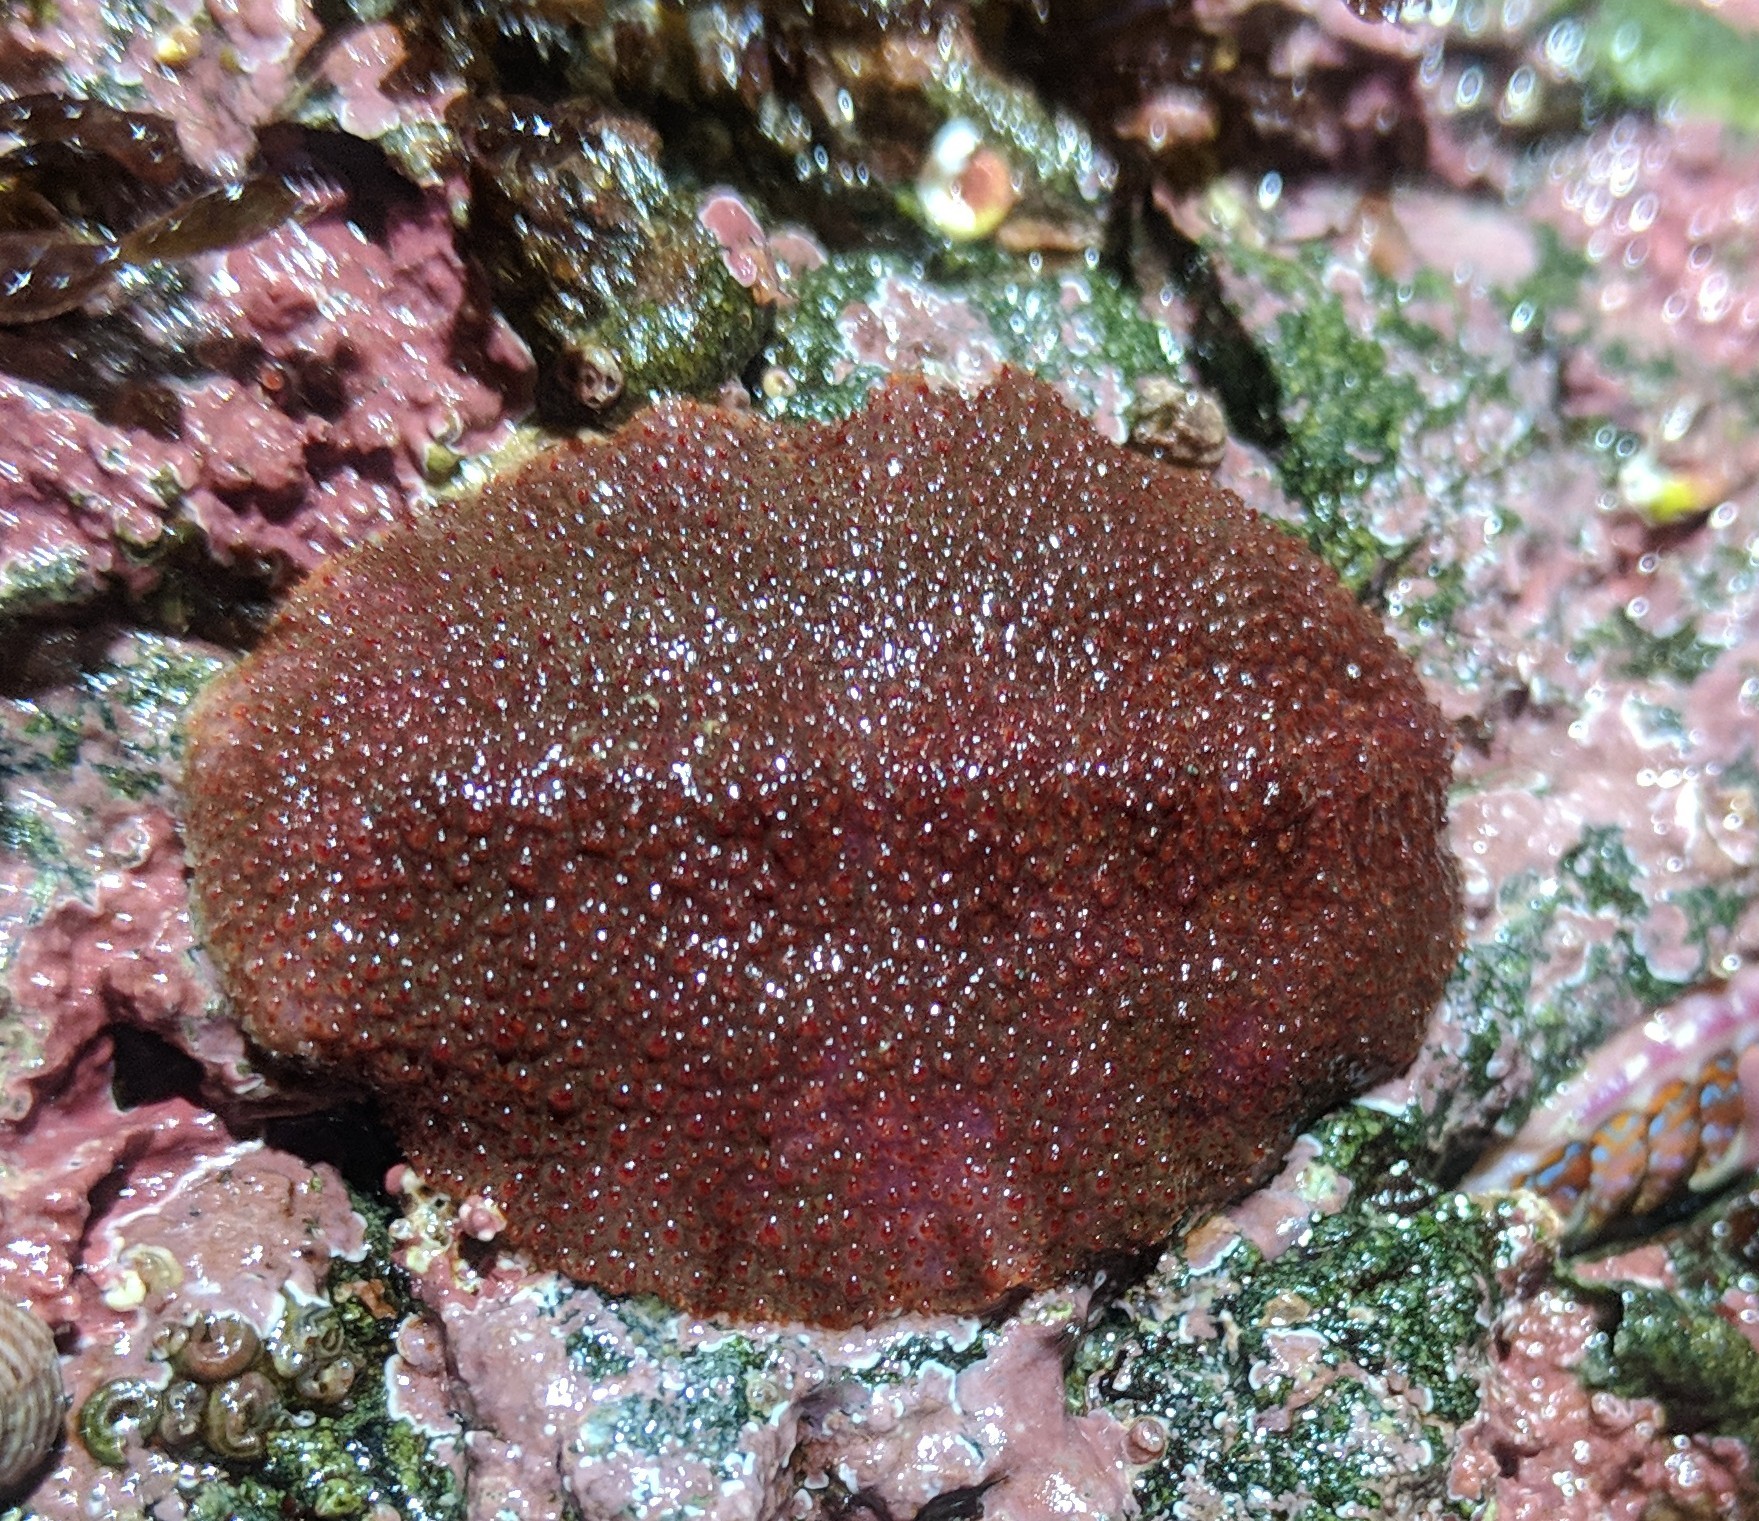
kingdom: Animalia
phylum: Mollusca
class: Polyplacophora
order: Chitonida
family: Acanthochitonidae
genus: Cryptochiton
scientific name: Cryptochiton stelleri
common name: Giant pacific chiton
